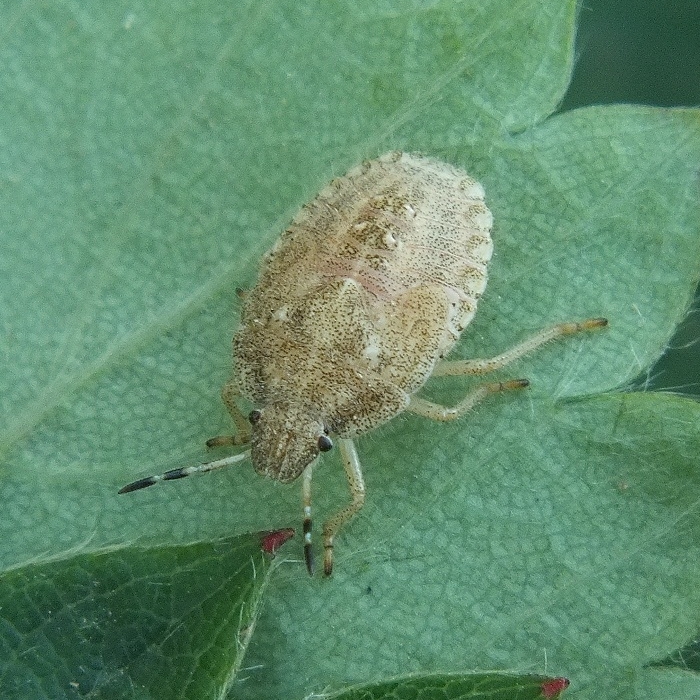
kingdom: Animalia
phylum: Arthropoda
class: Insecta
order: Hemiptera
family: Pentatomidae
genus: Dolycoris
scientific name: Dolycoris baccarum
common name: Sloe bug
